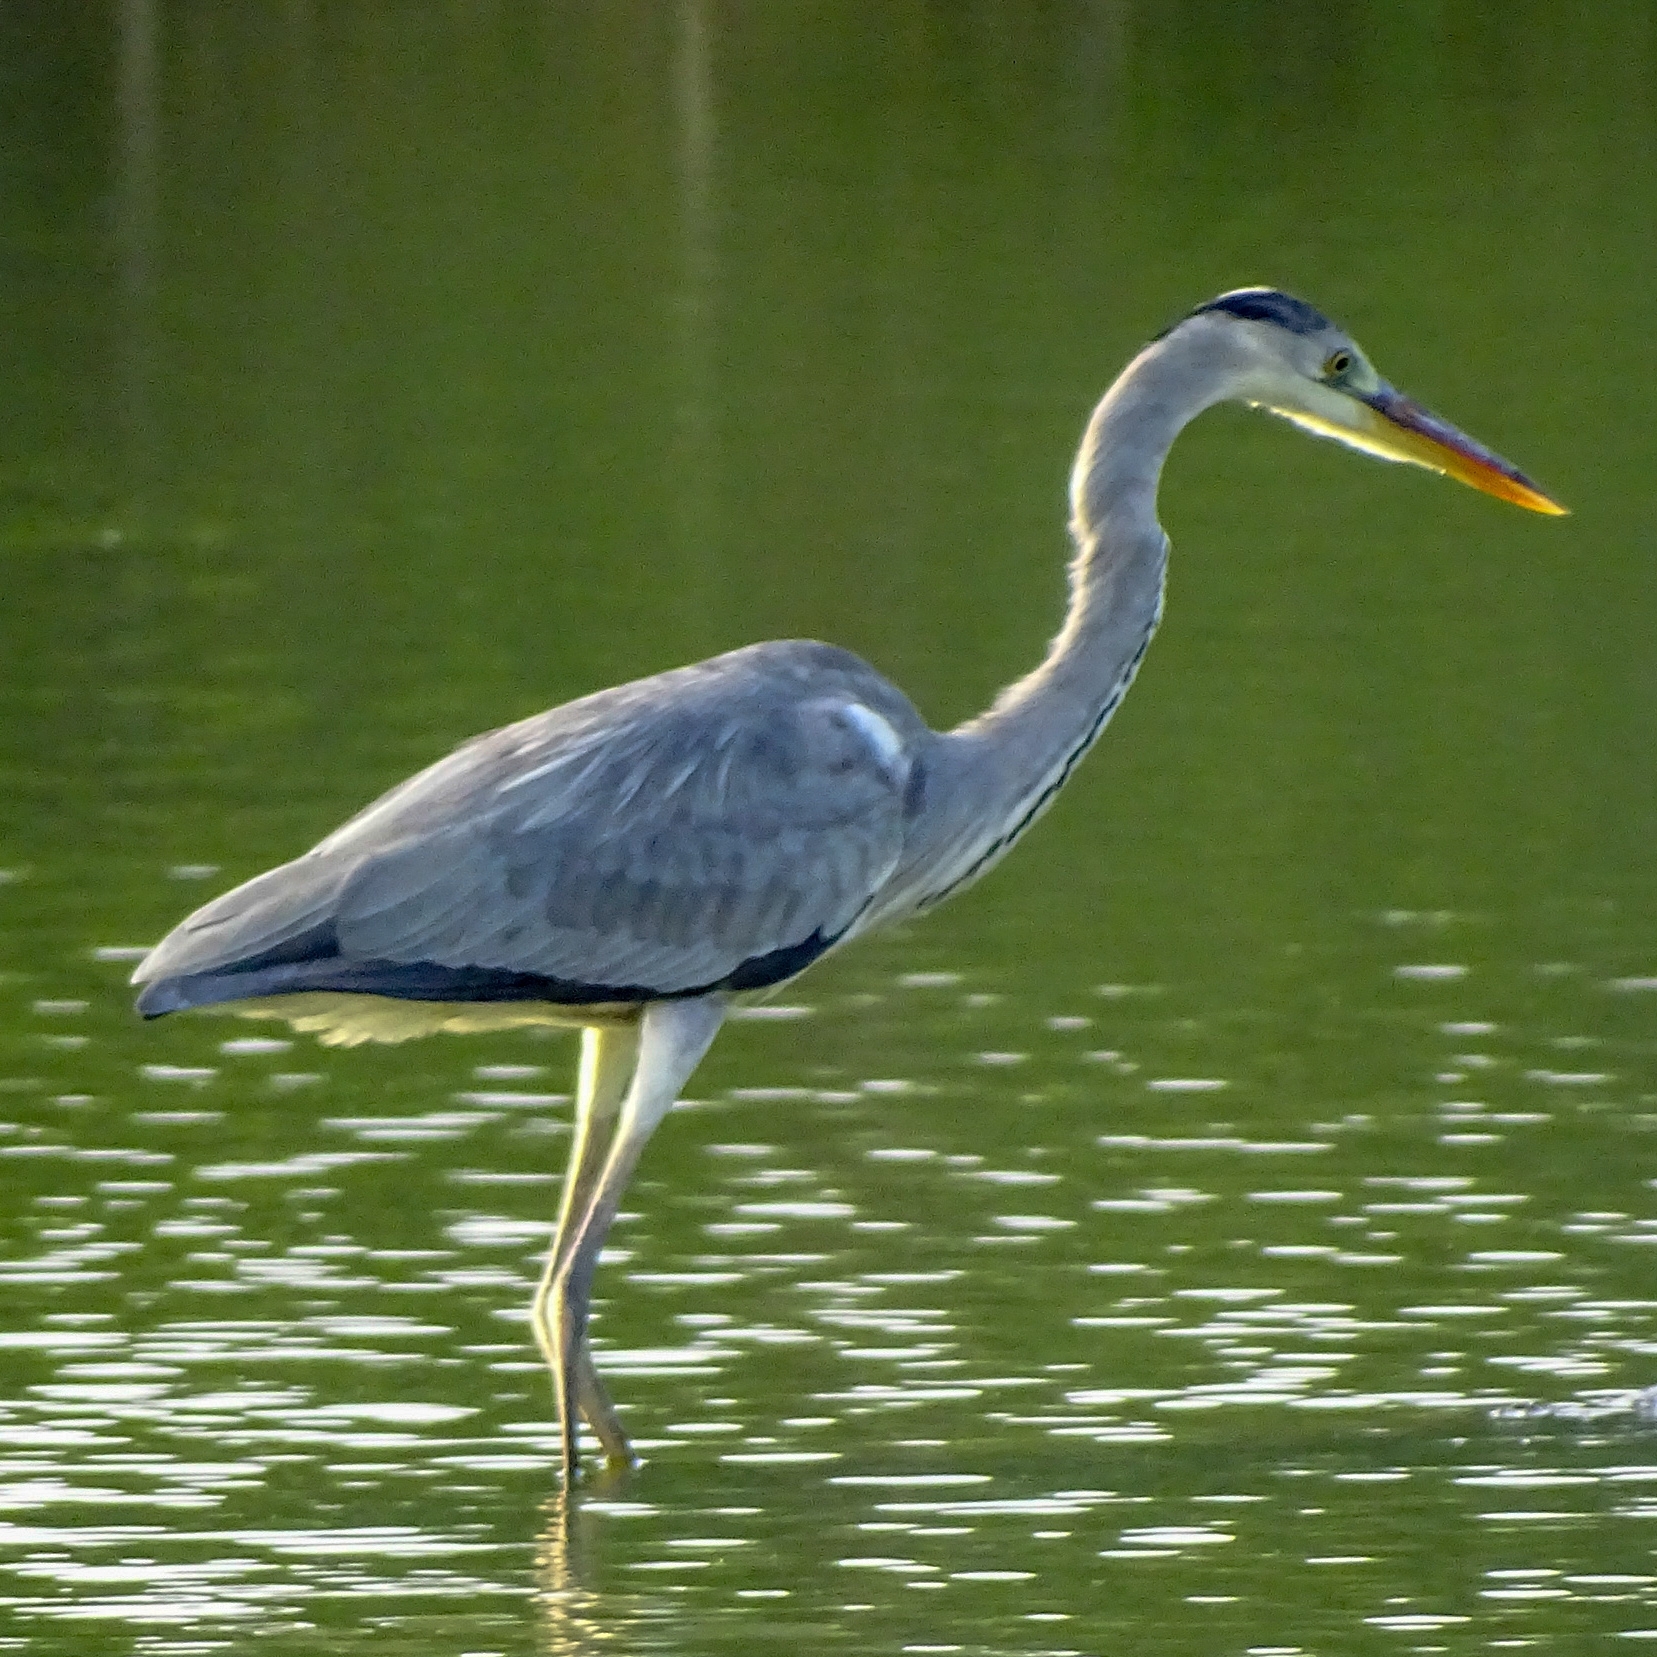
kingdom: Animalia
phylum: Chordata
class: Aves
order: Pelecaniformes
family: Ardeidae
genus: Ardea
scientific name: Ardea cinerea
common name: Grey heron
